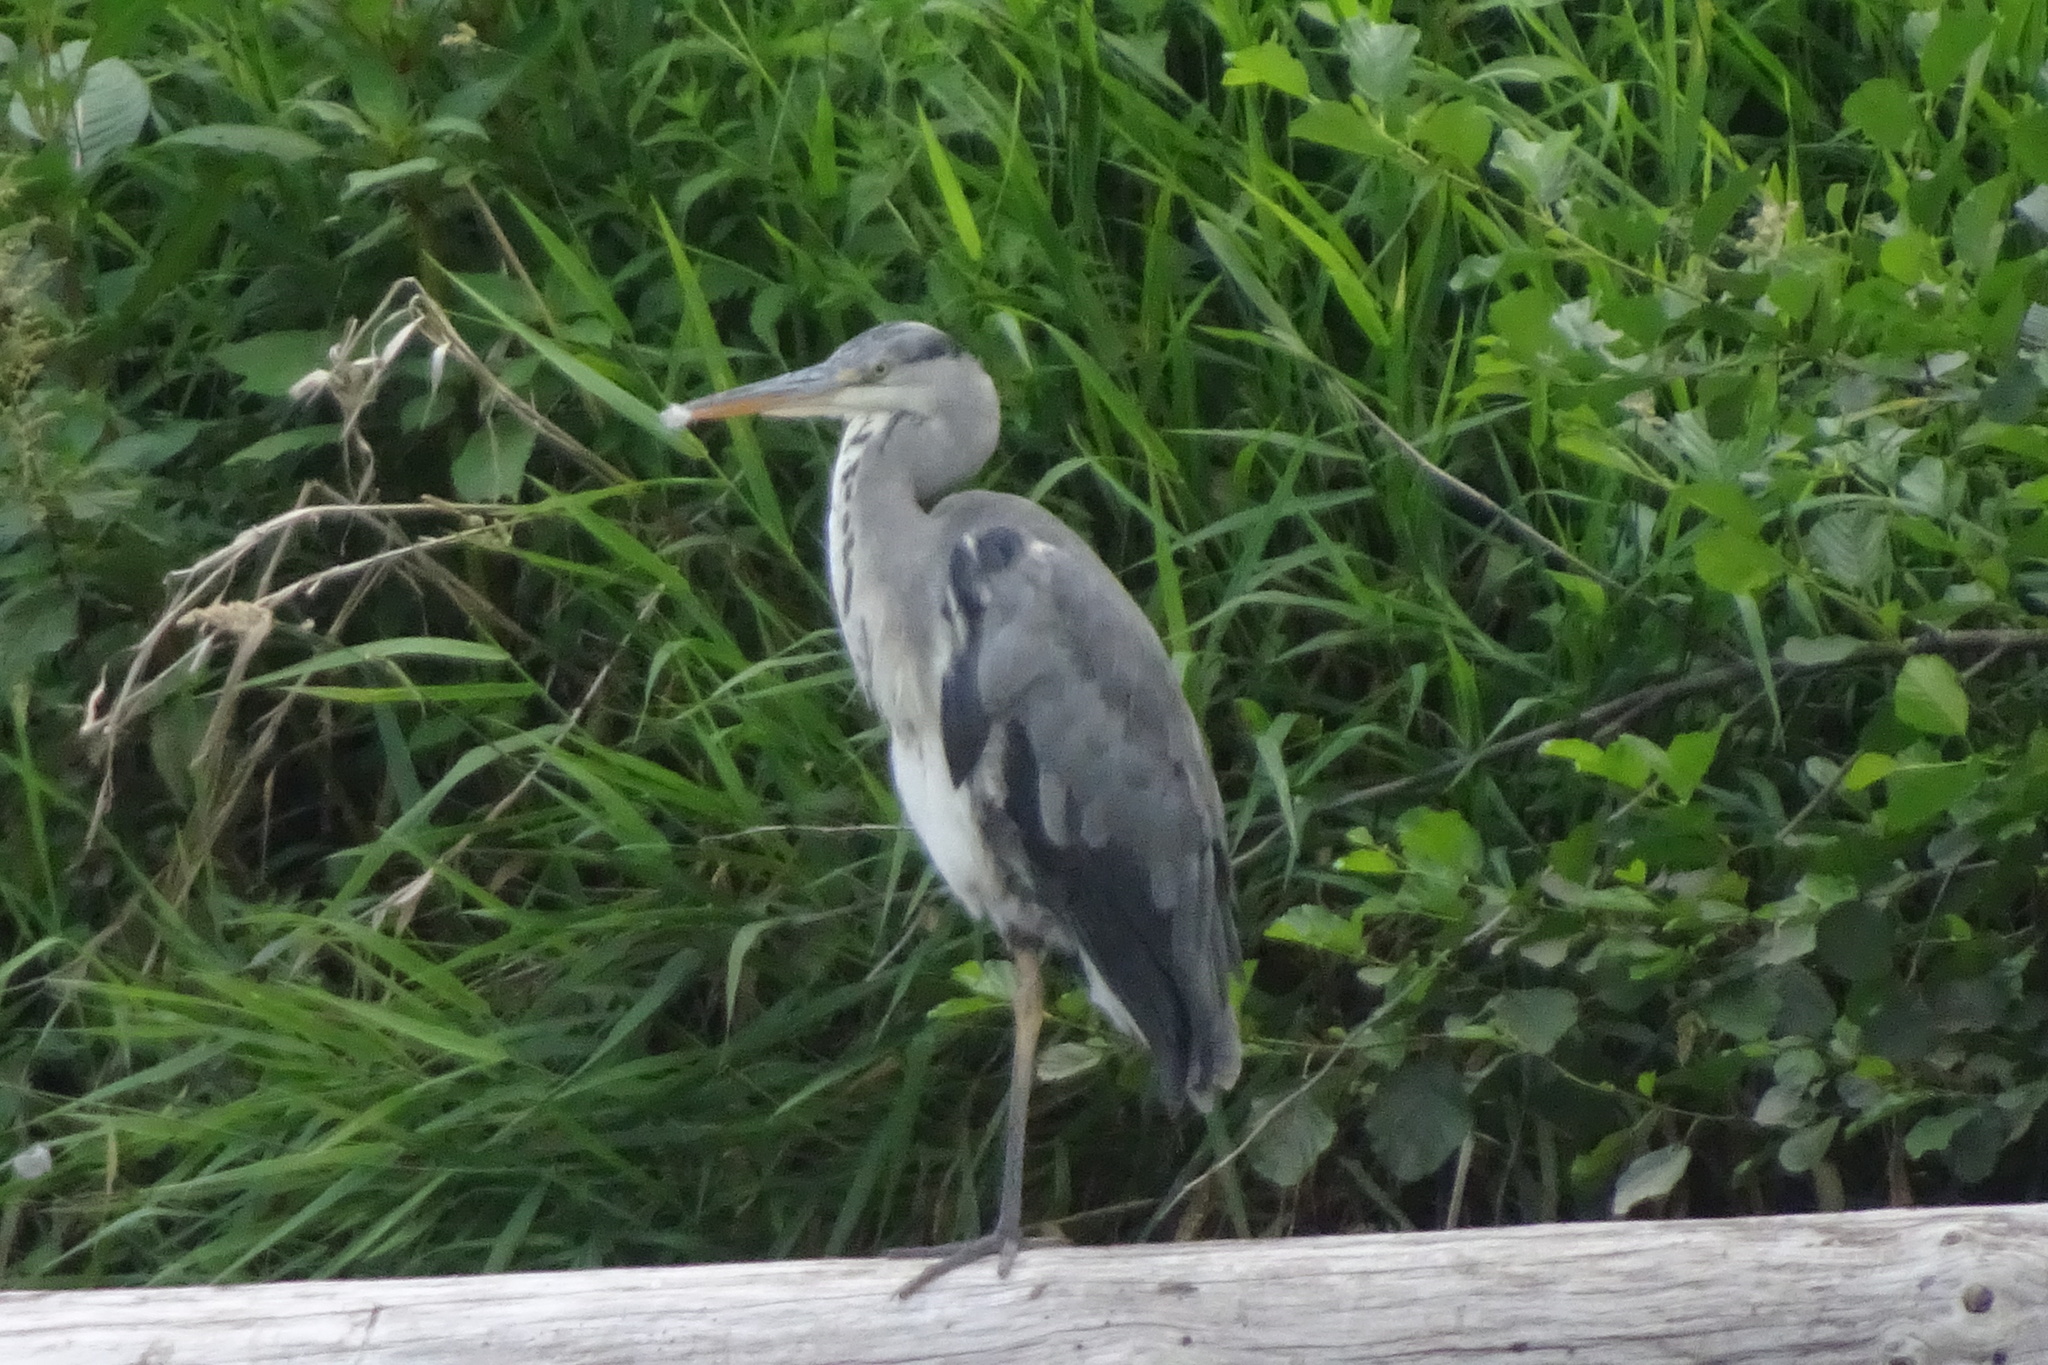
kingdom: Animalia
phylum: Chordata
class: Aves
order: Pelecaniformes
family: Ardeidae
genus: Ardea
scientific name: Ardea cinerea
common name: Grey heron
